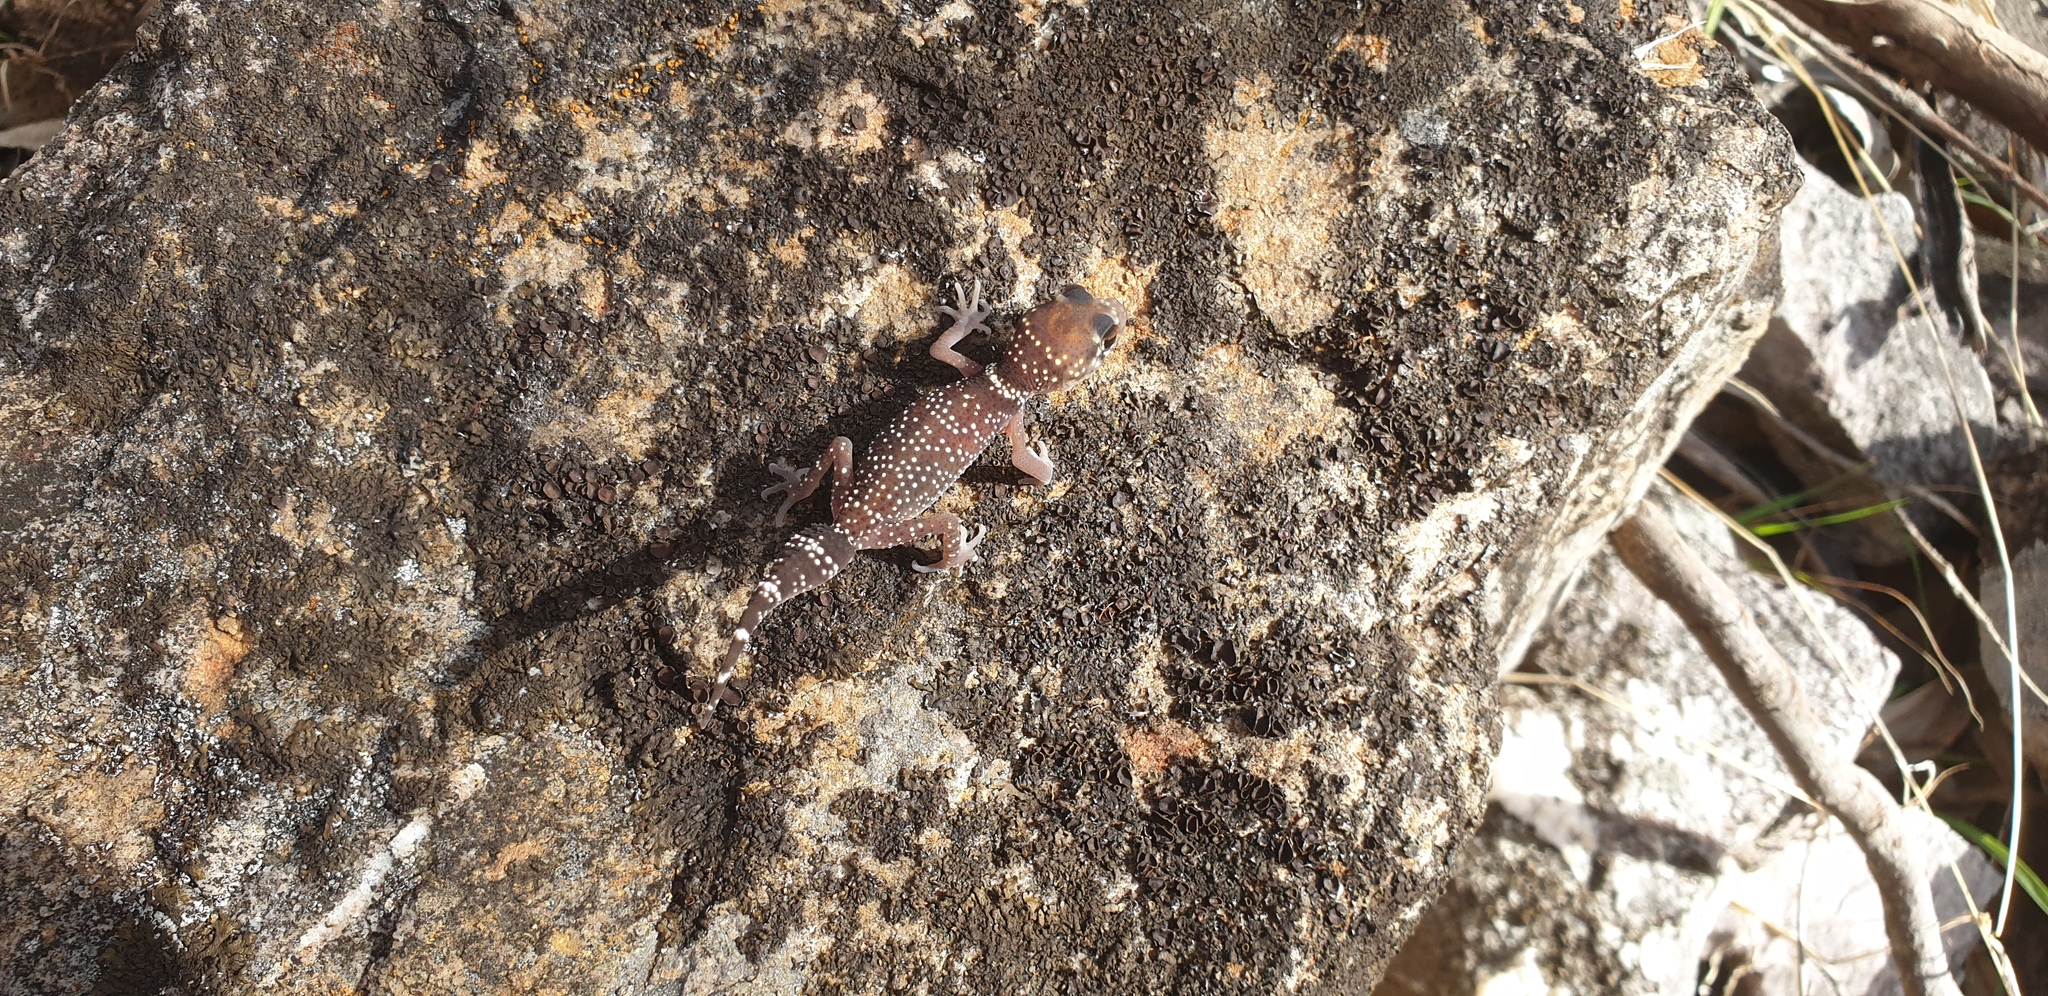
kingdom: Animalia
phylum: Chordata
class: Squamata
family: Carphodactylidae
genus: Underwoodisaurus
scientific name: Underwoodisaurus milii
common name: Barking gecko
